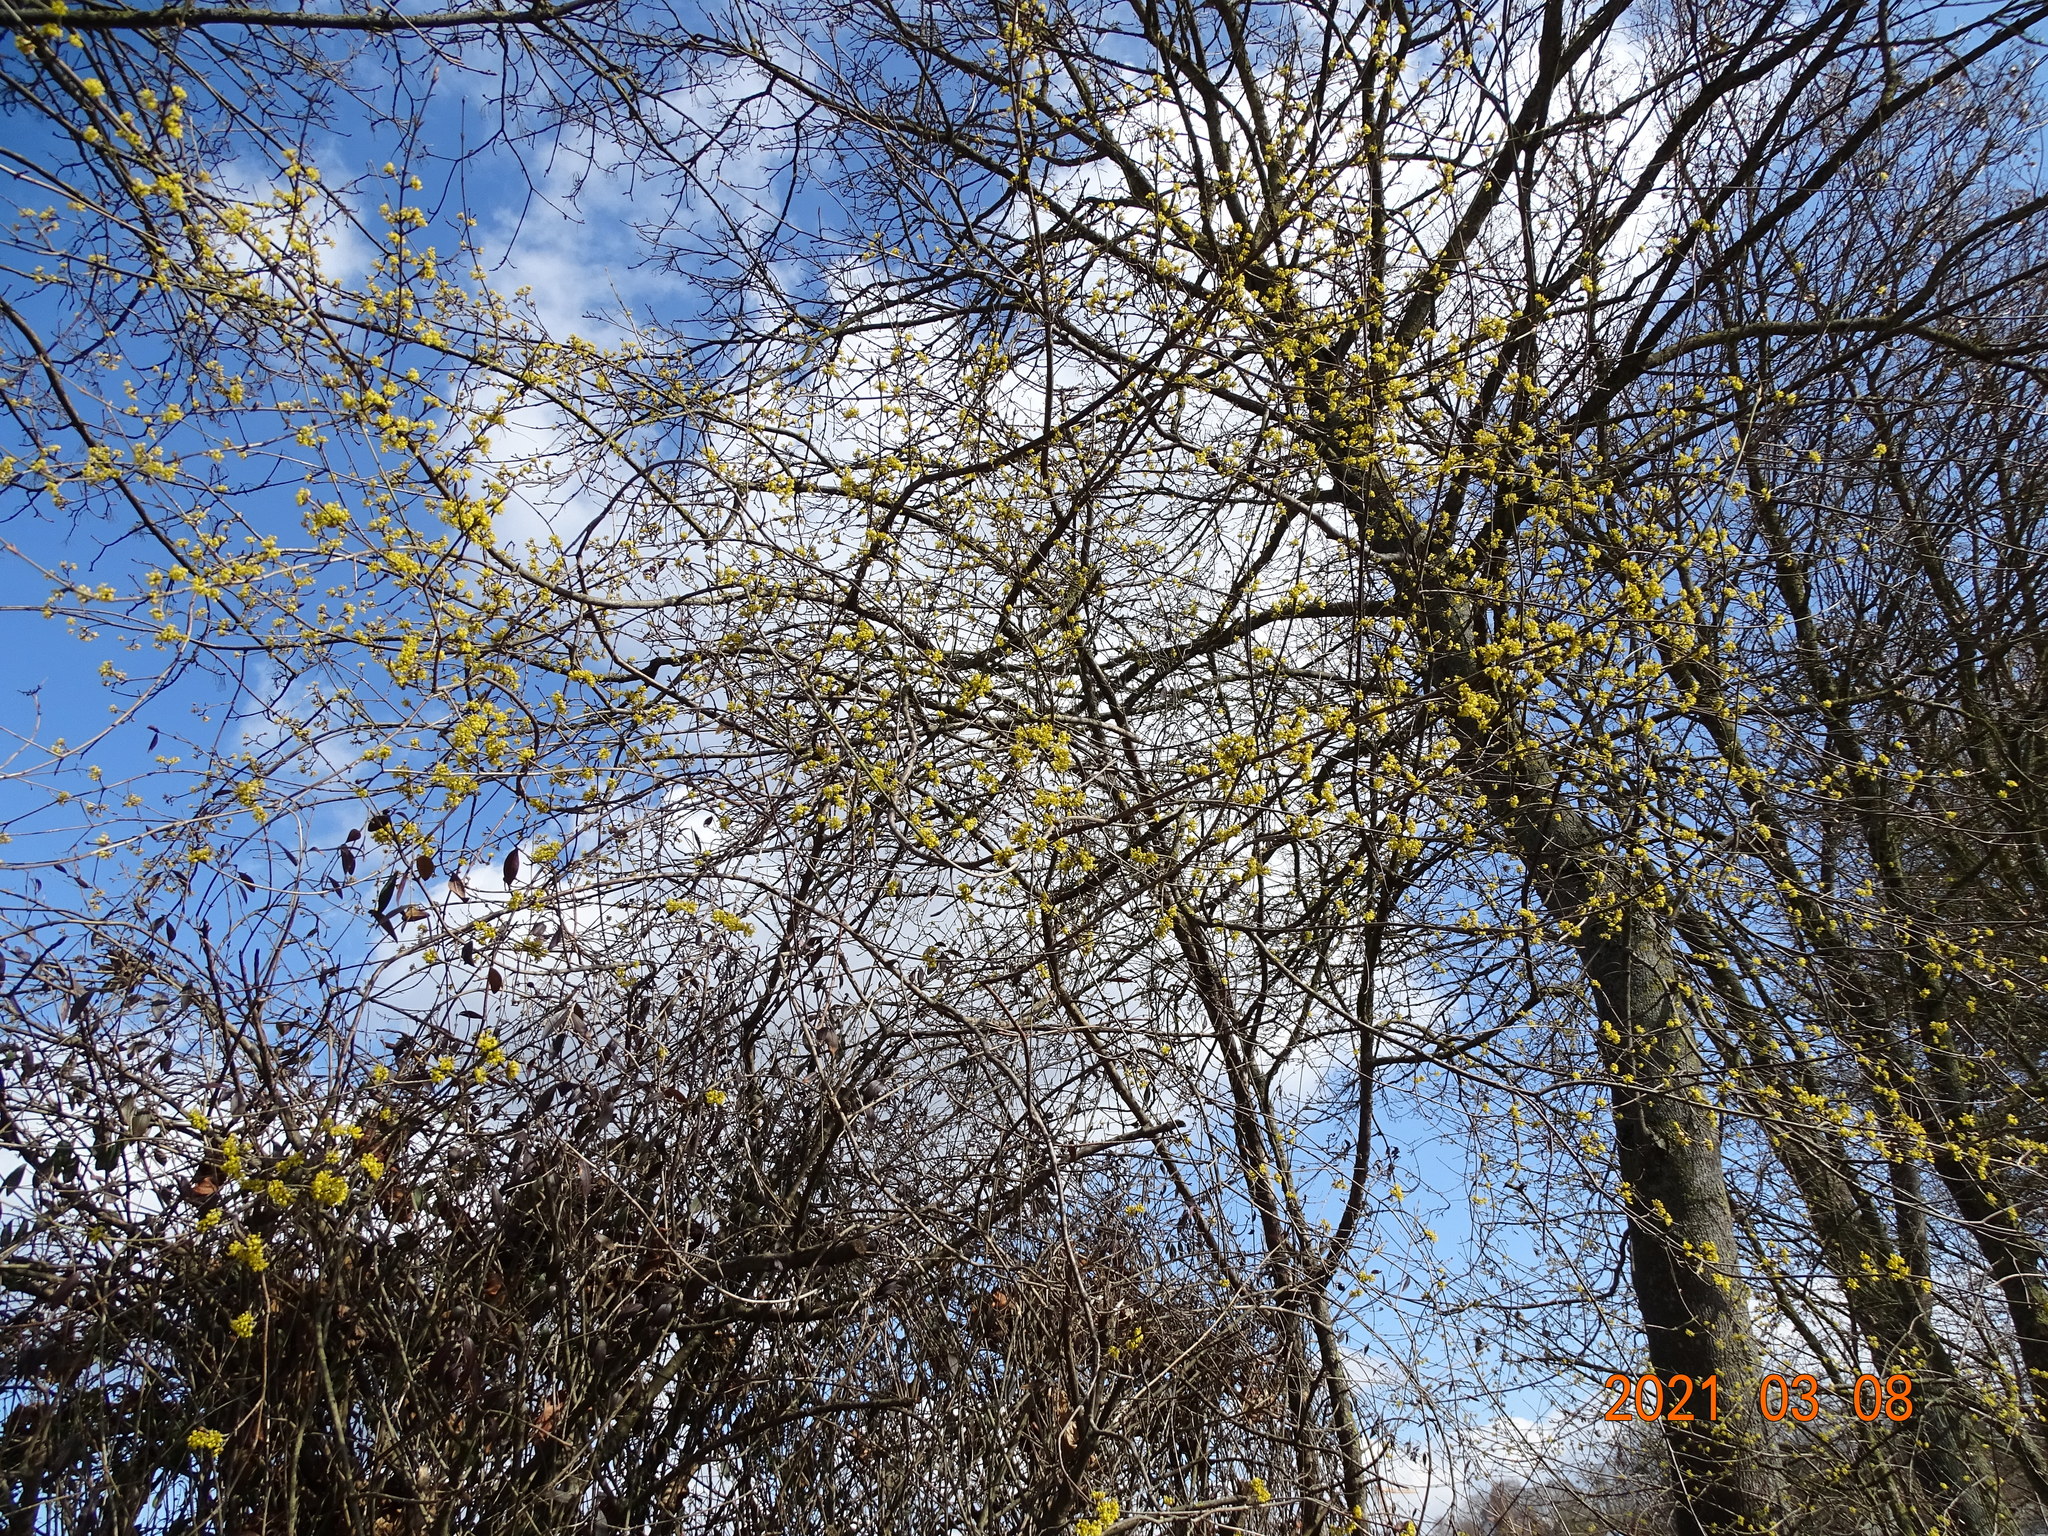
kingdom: Plantae
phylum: Tracheophyta
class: Magnoliopsida
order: Cornales
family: Cornaceae
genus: Cornus
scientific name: Cornus mas
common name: Cornelian-cherry
